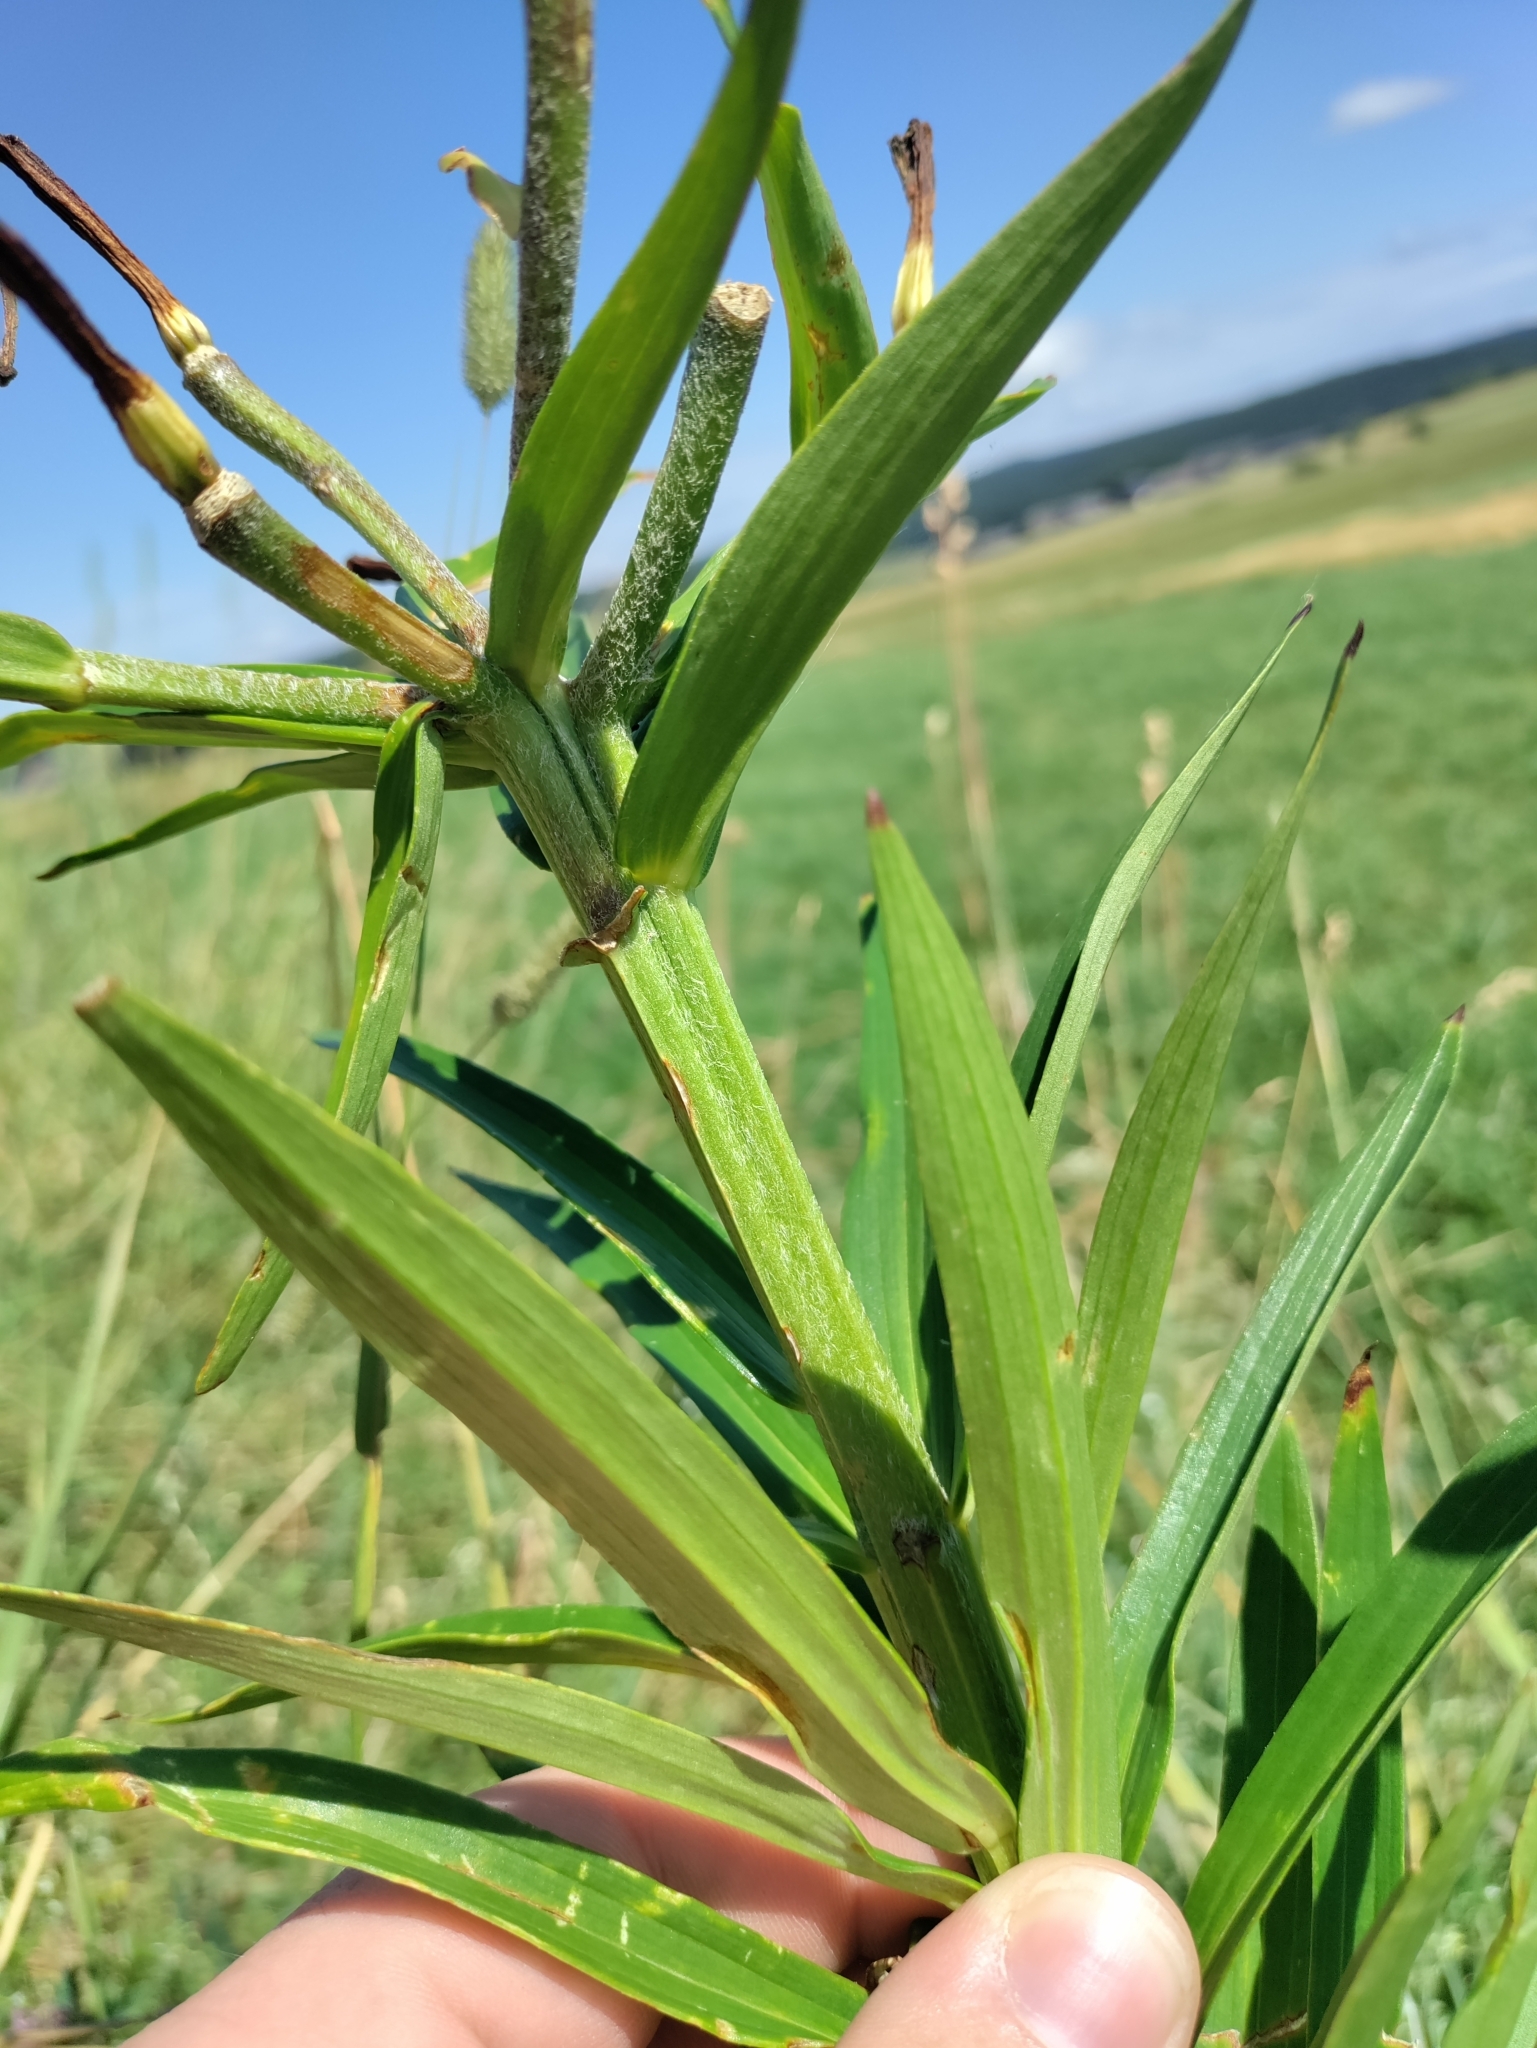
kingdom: Plantae
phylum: Tracheophyta
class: Liliopsida
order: Liliales
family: Liliaceae
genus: Lilium
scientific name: Lilium bulbiferum
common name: Orange lily
